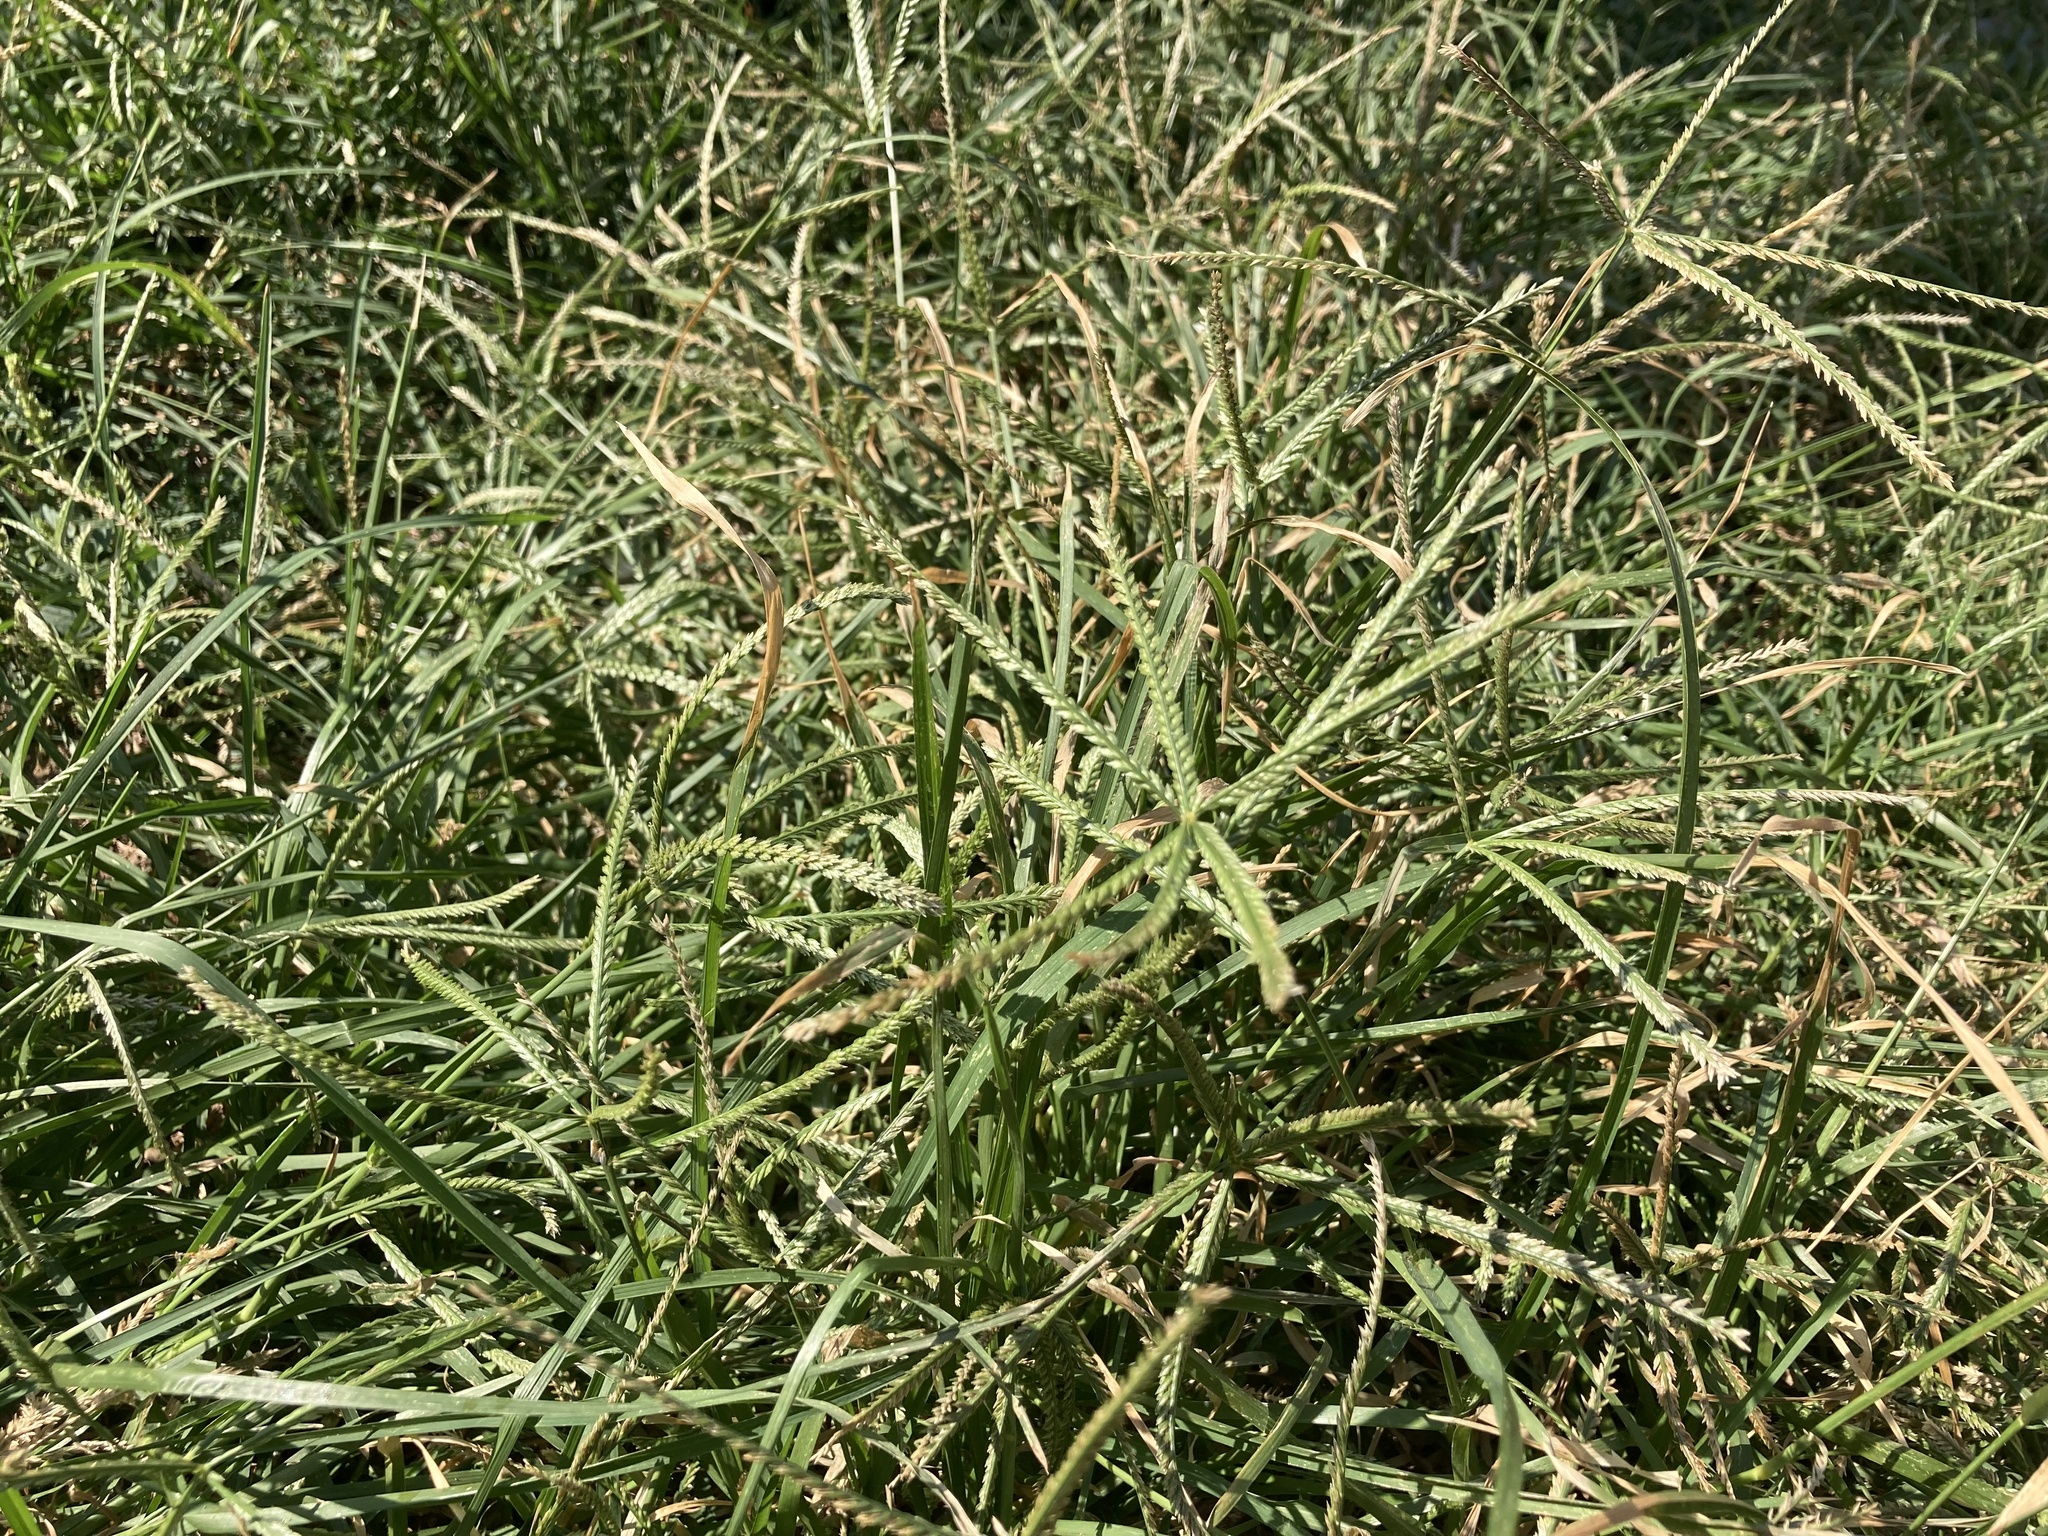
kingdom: Plantae
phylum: Tracheophyta
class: Liliopsida
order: Poales
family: Poaceae
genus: Eleusine
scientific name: Eleusine indica
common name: Yard-grass
